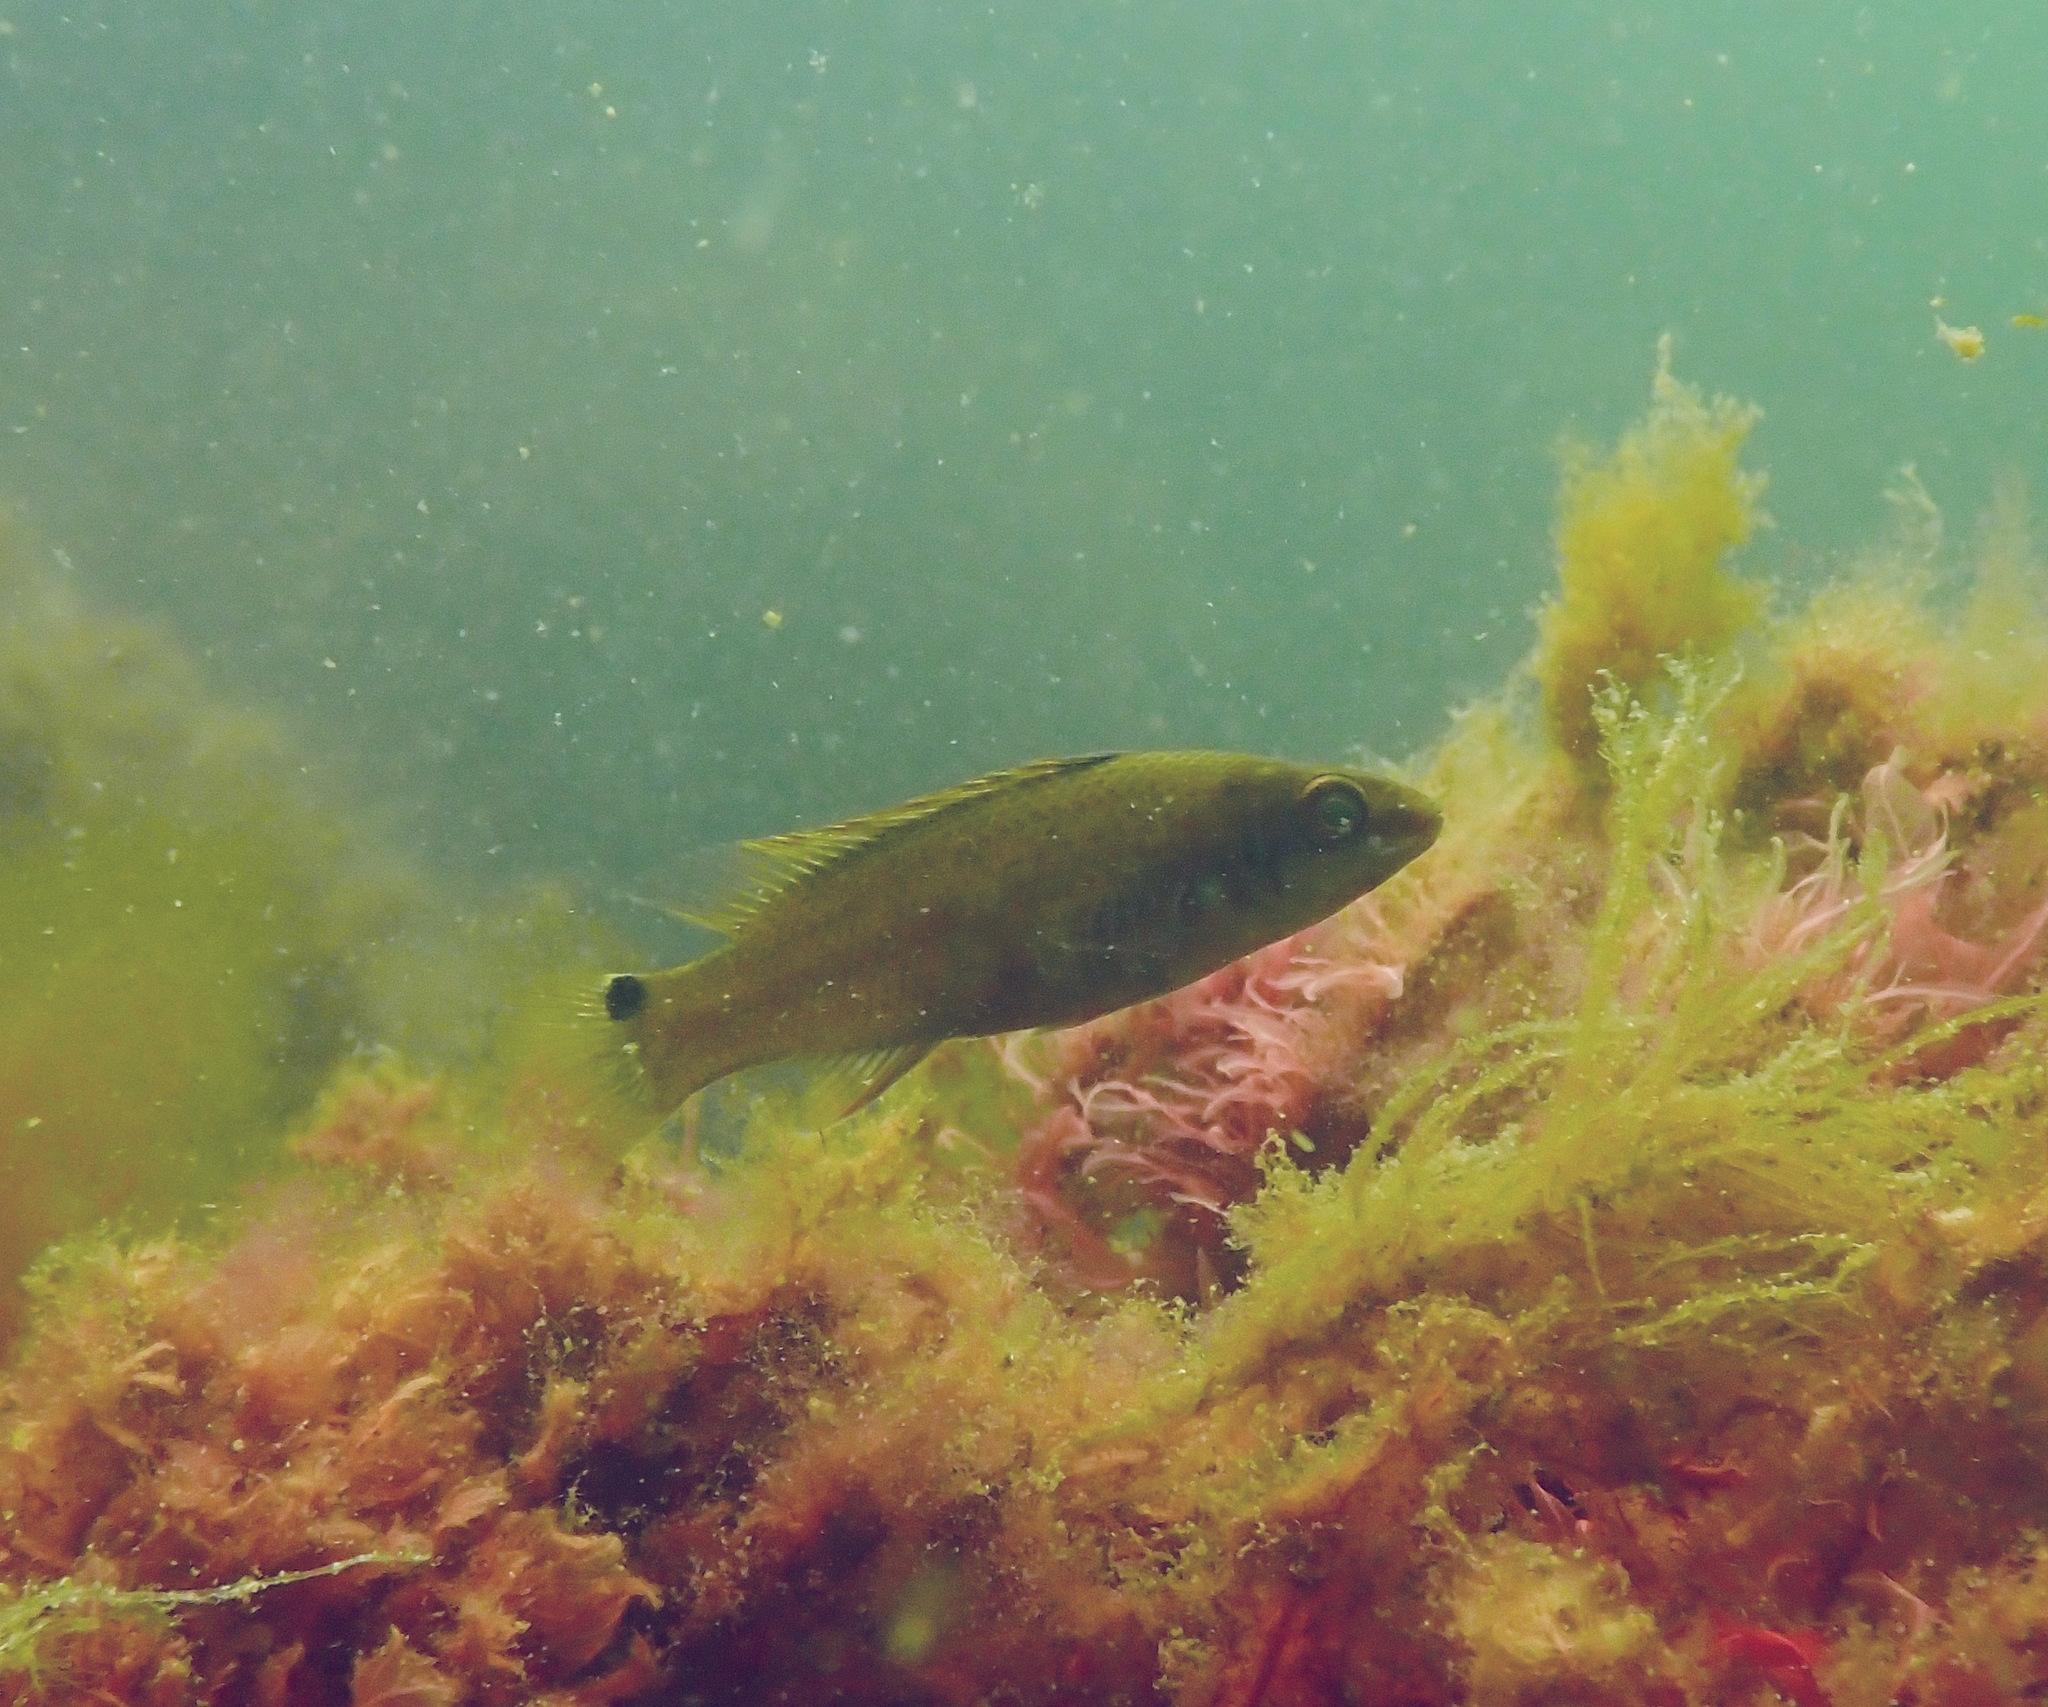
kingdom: Animalia
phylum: Chordata
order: Perciformes
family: Labridae
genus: Ctenolabrus
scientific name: Ctenolabrus rupestris
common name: Goldsinny
